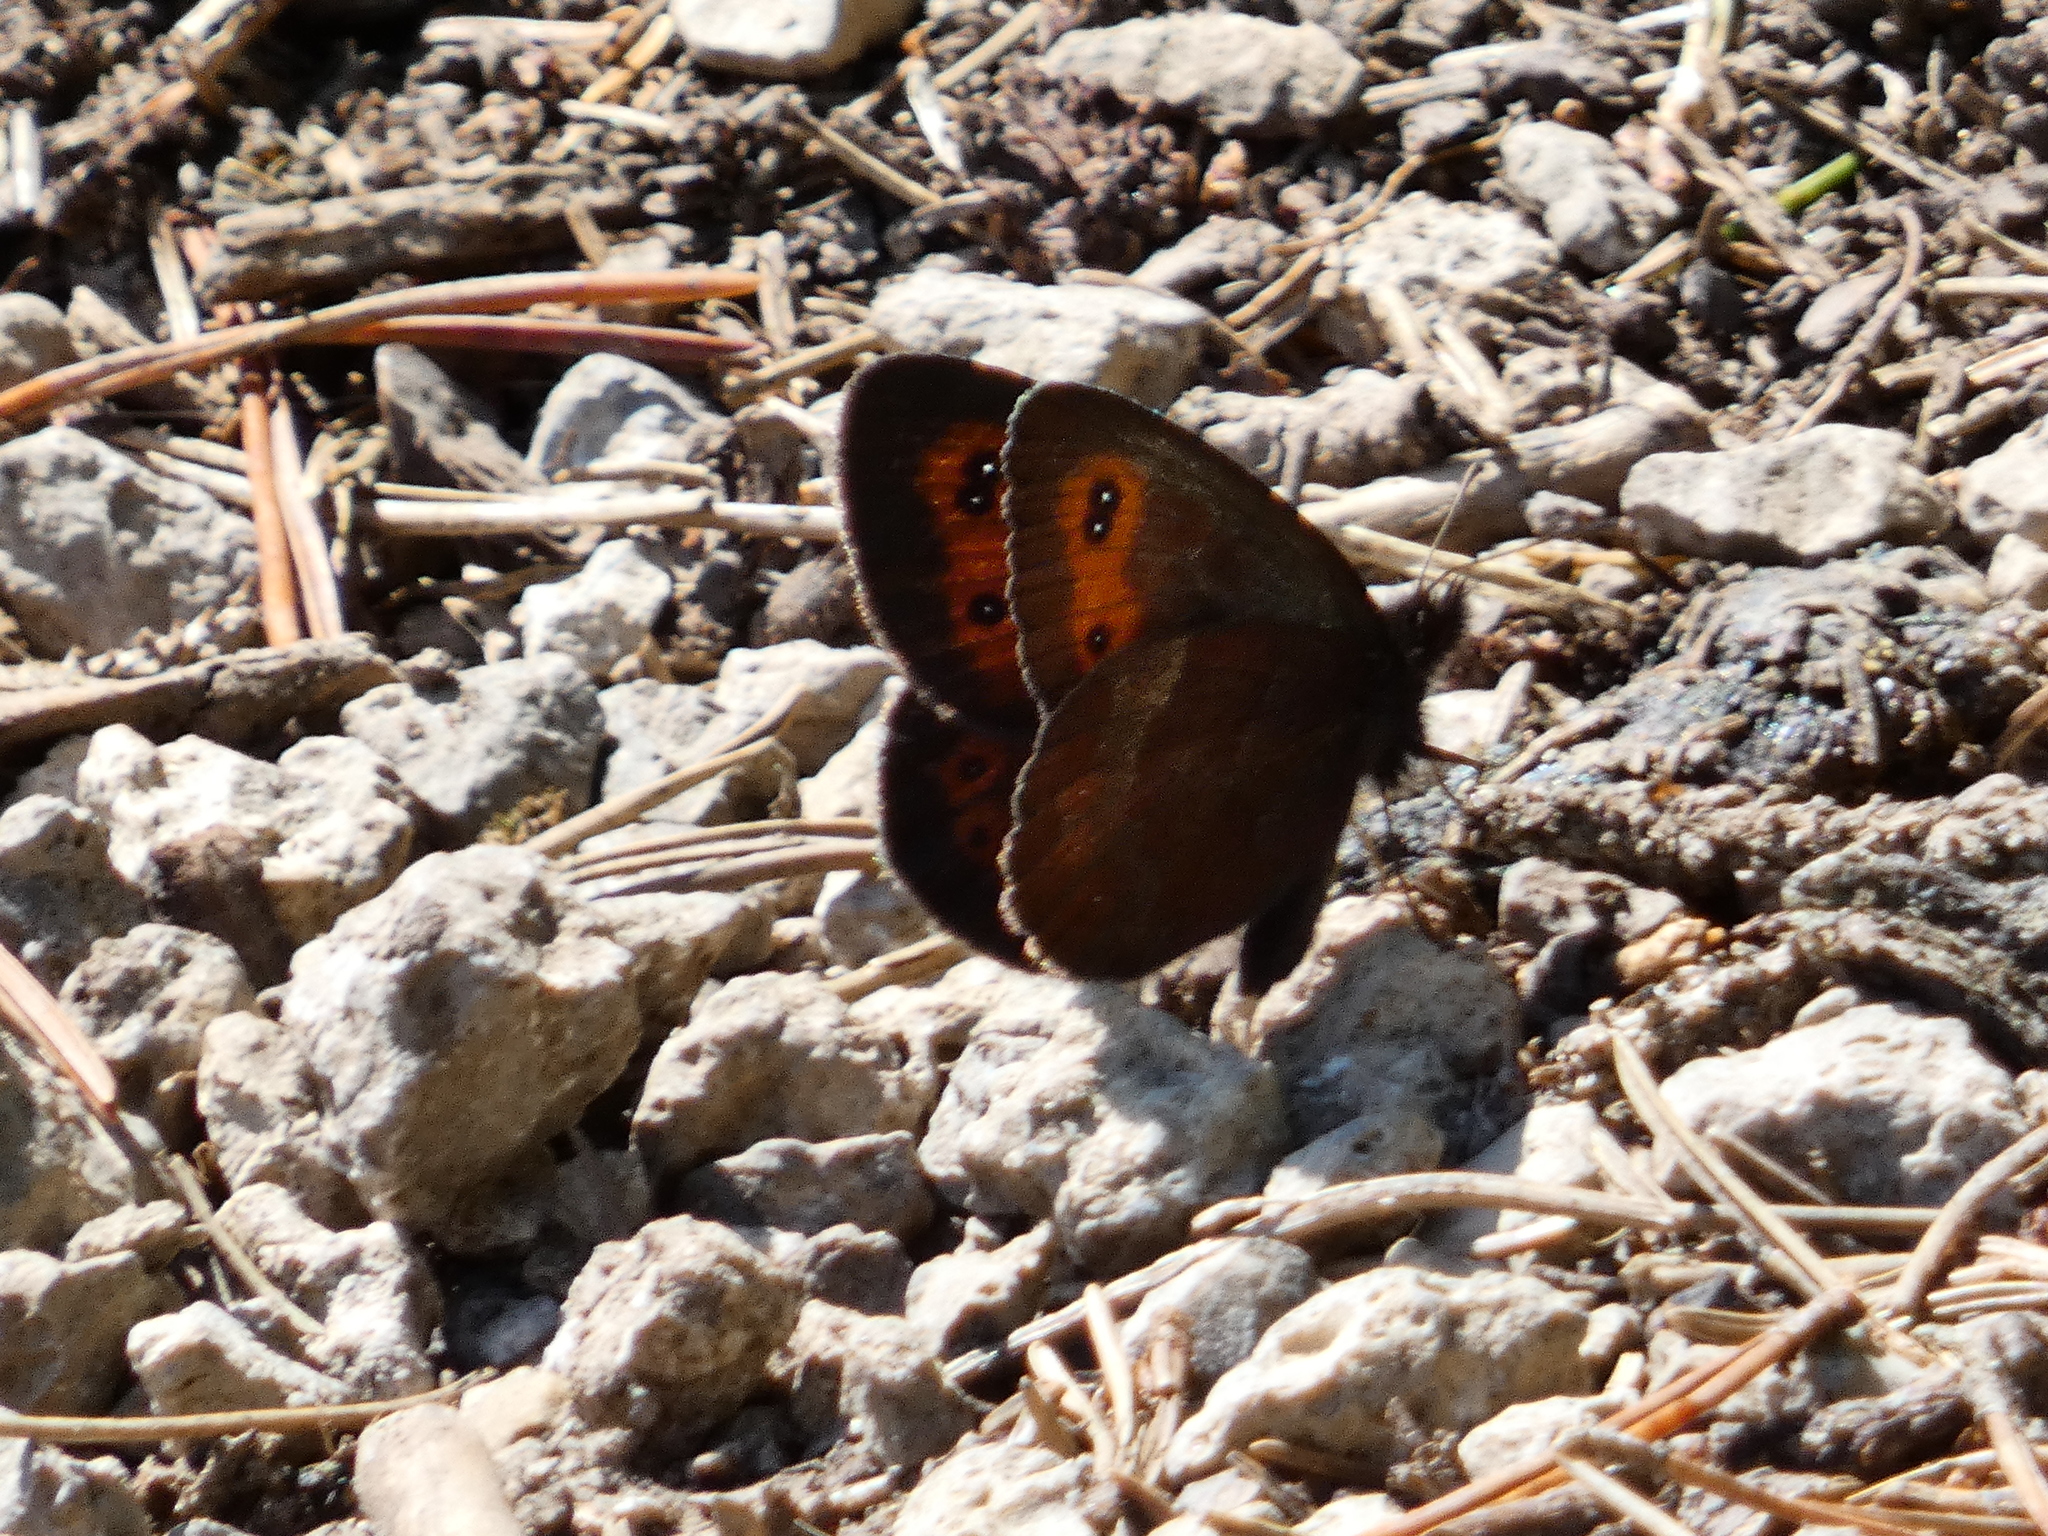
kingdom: Animalia
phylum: Arthropoda
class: Insecta
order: Lepidoptera
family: Nymphalidae
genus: Erebia
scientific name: Erebia euryale
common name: Large ringlet
